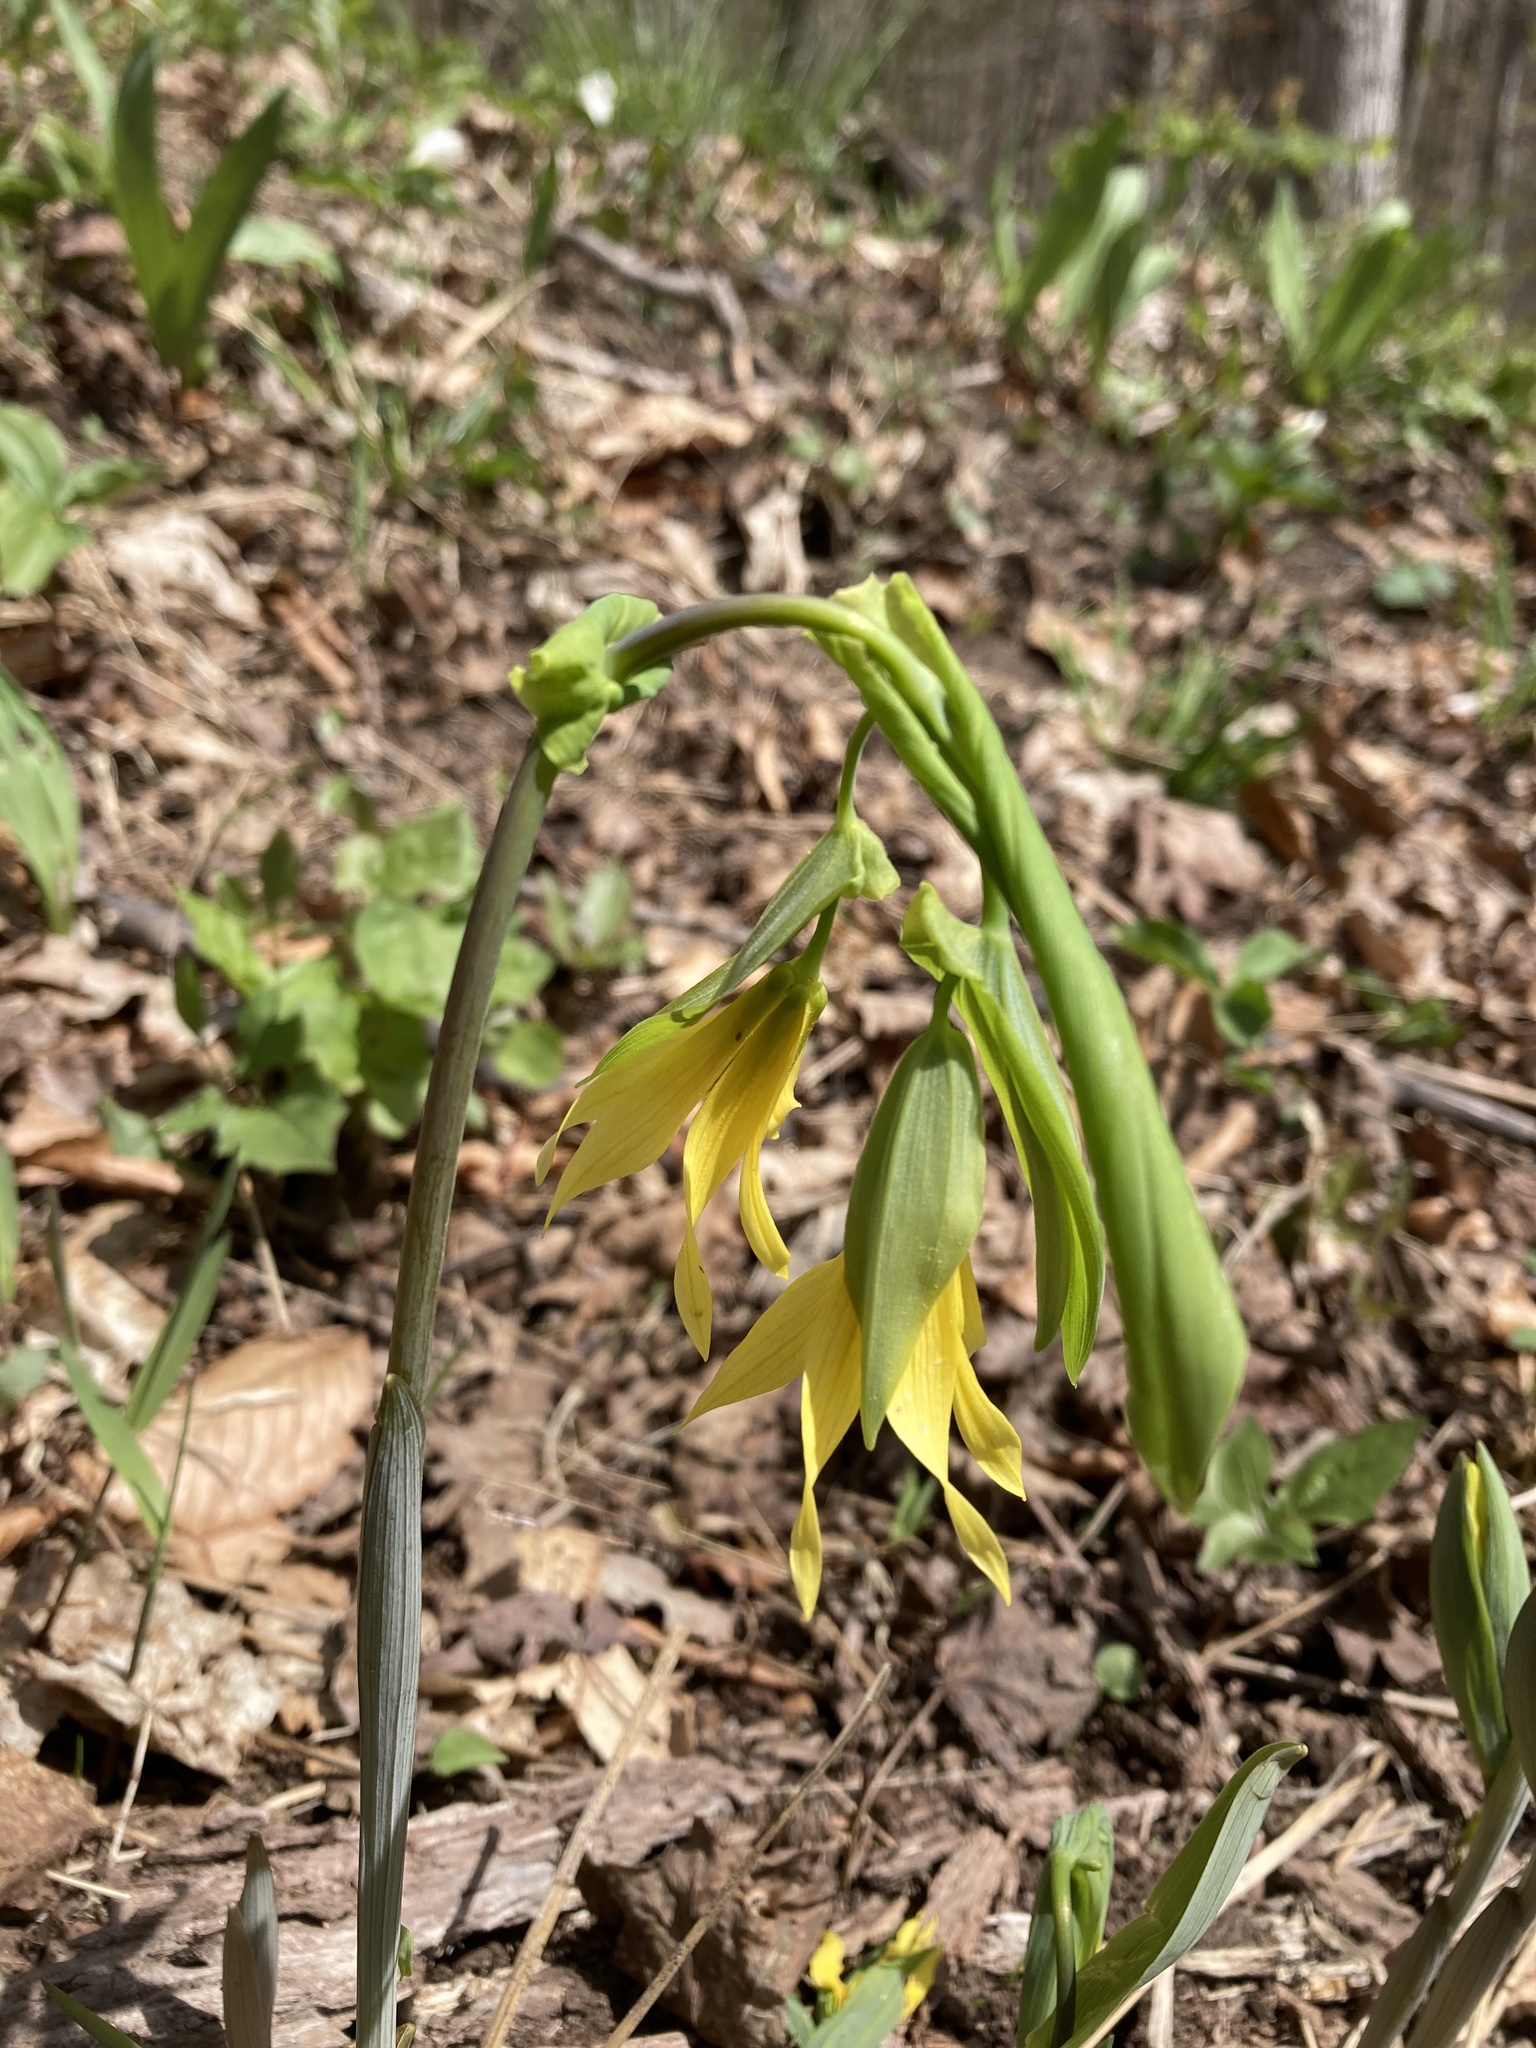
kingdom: Plantae
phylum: Tracheophyta
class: Liliopsida
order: Liliales
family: Colchicaceae
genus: Uvularia
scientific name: Uvularia grandiflora
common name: Bellwort
